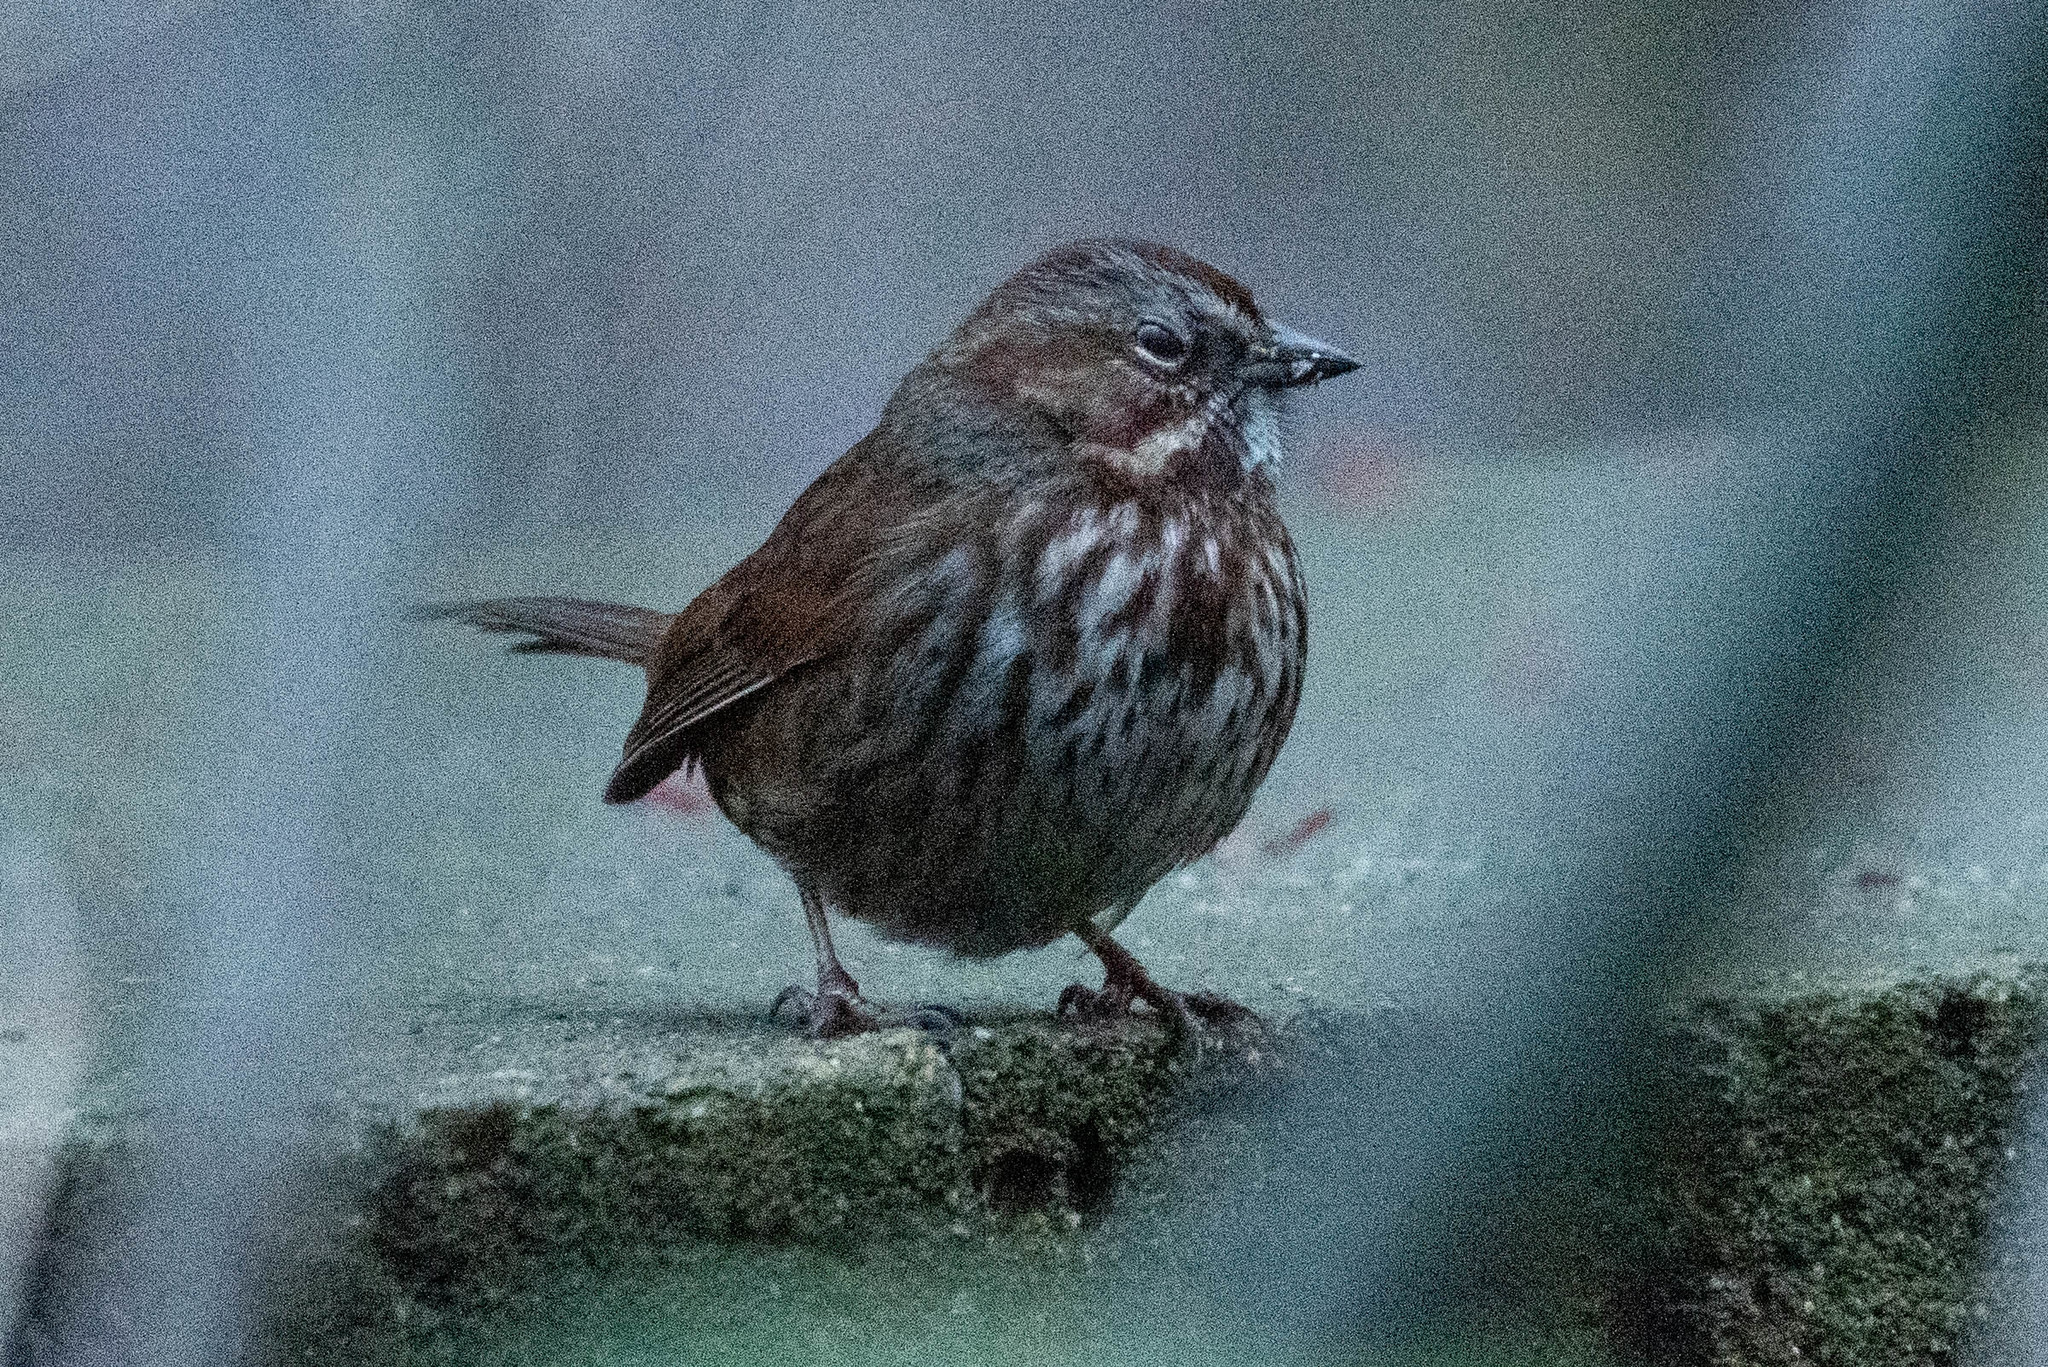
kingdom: Animalia
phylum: Chordata
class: Aves
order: Passeriformes
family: Passerellidae
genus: Melospiza
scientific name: Melospiza melodia
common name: Song sparrow
